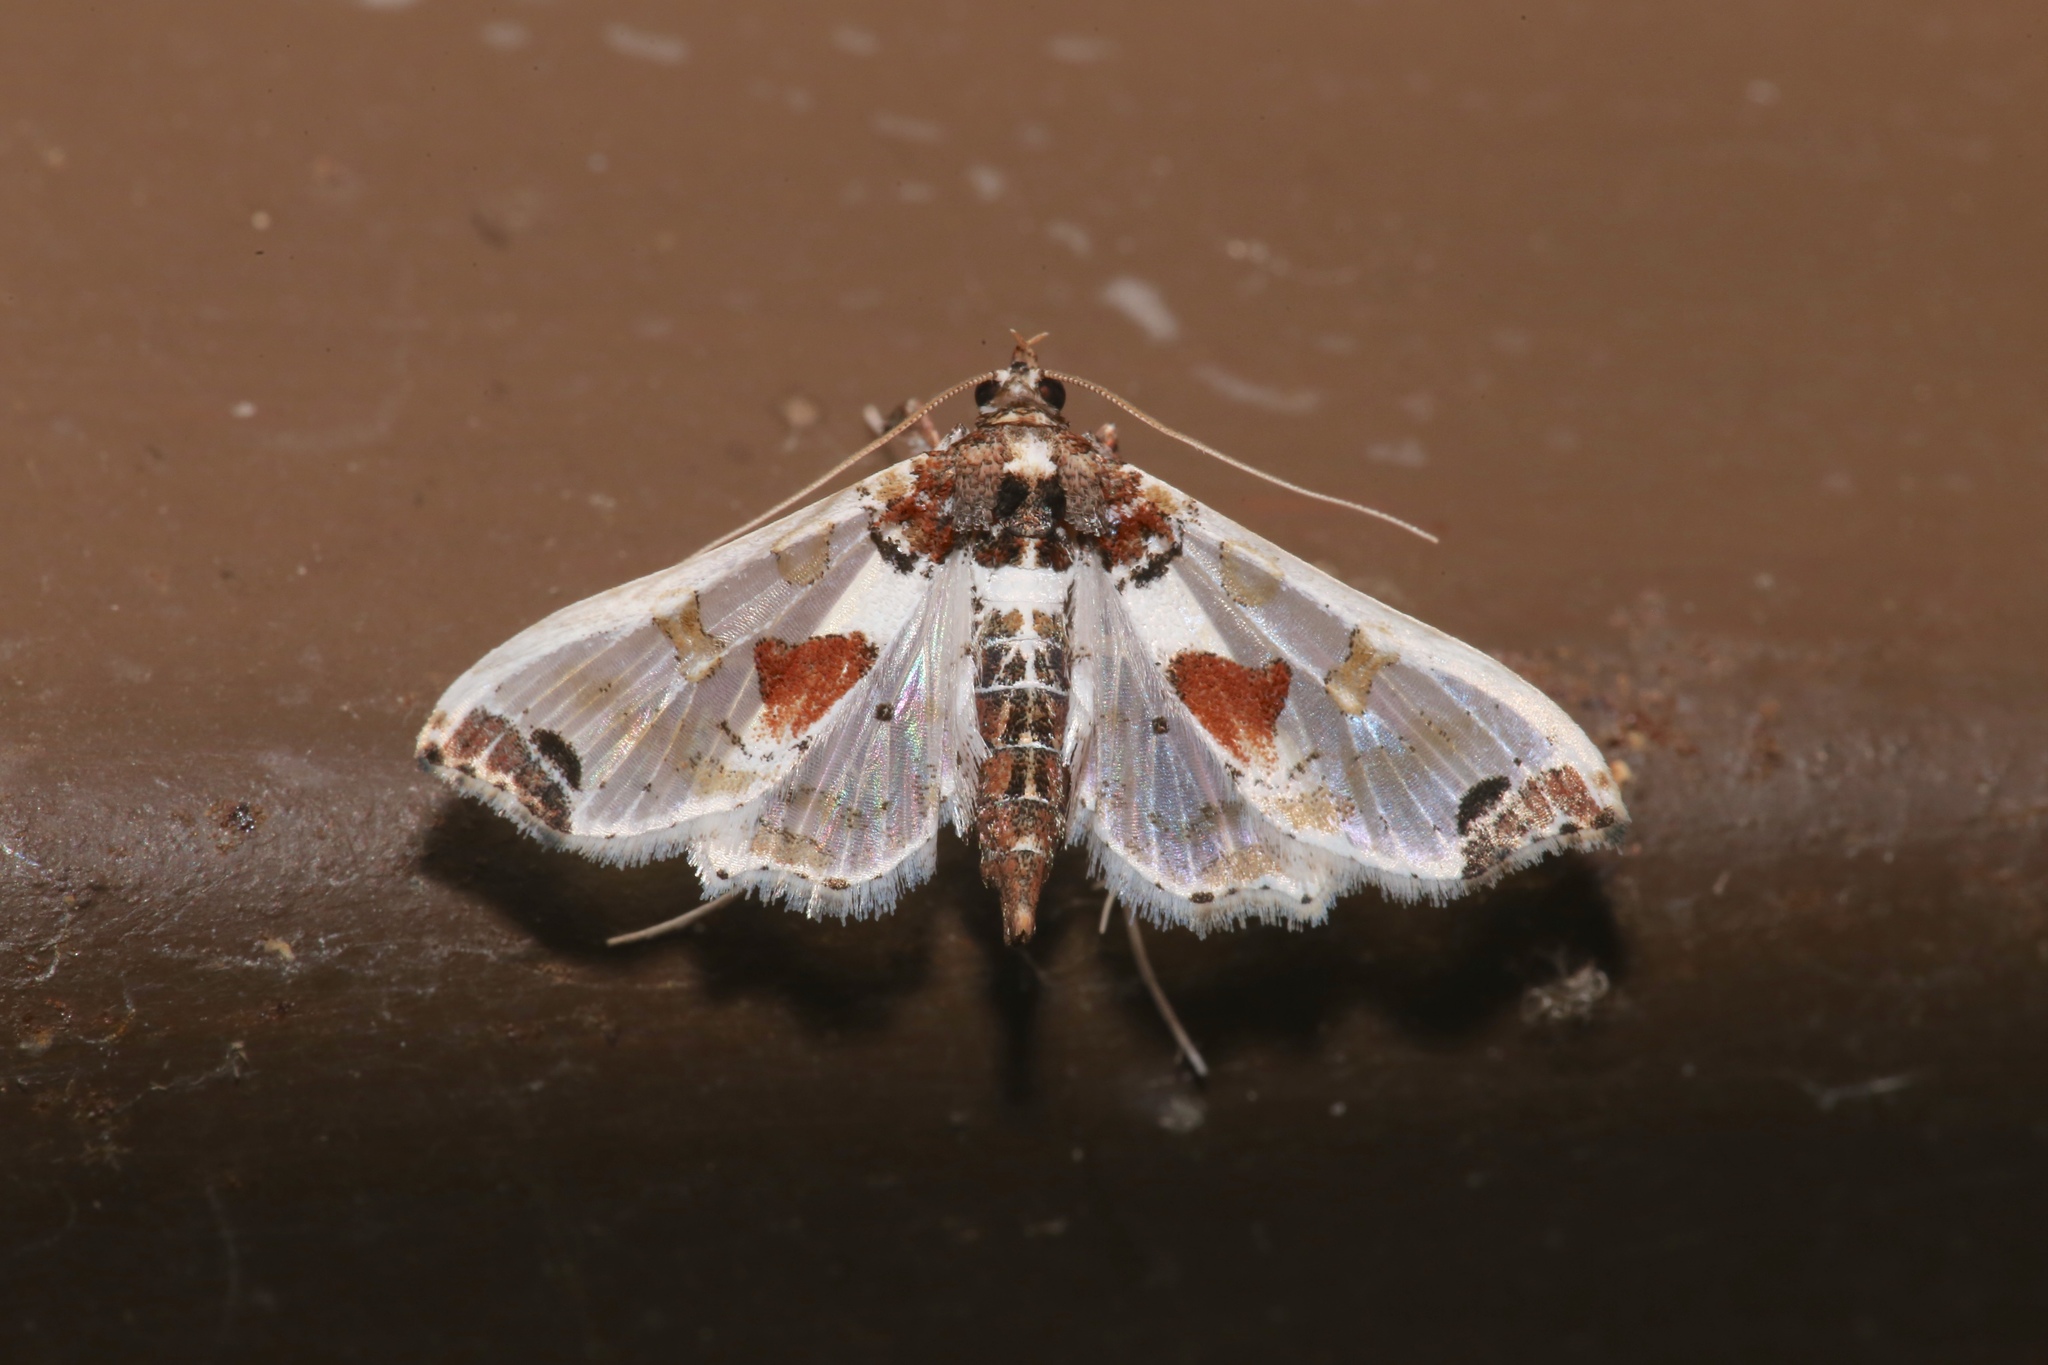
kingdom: Animalia
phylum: Arthropoda
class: Insecta
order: Lepidoptera
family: Crambidae
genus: Neoleucinodes
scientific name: Neoleucinodes elegantalis
